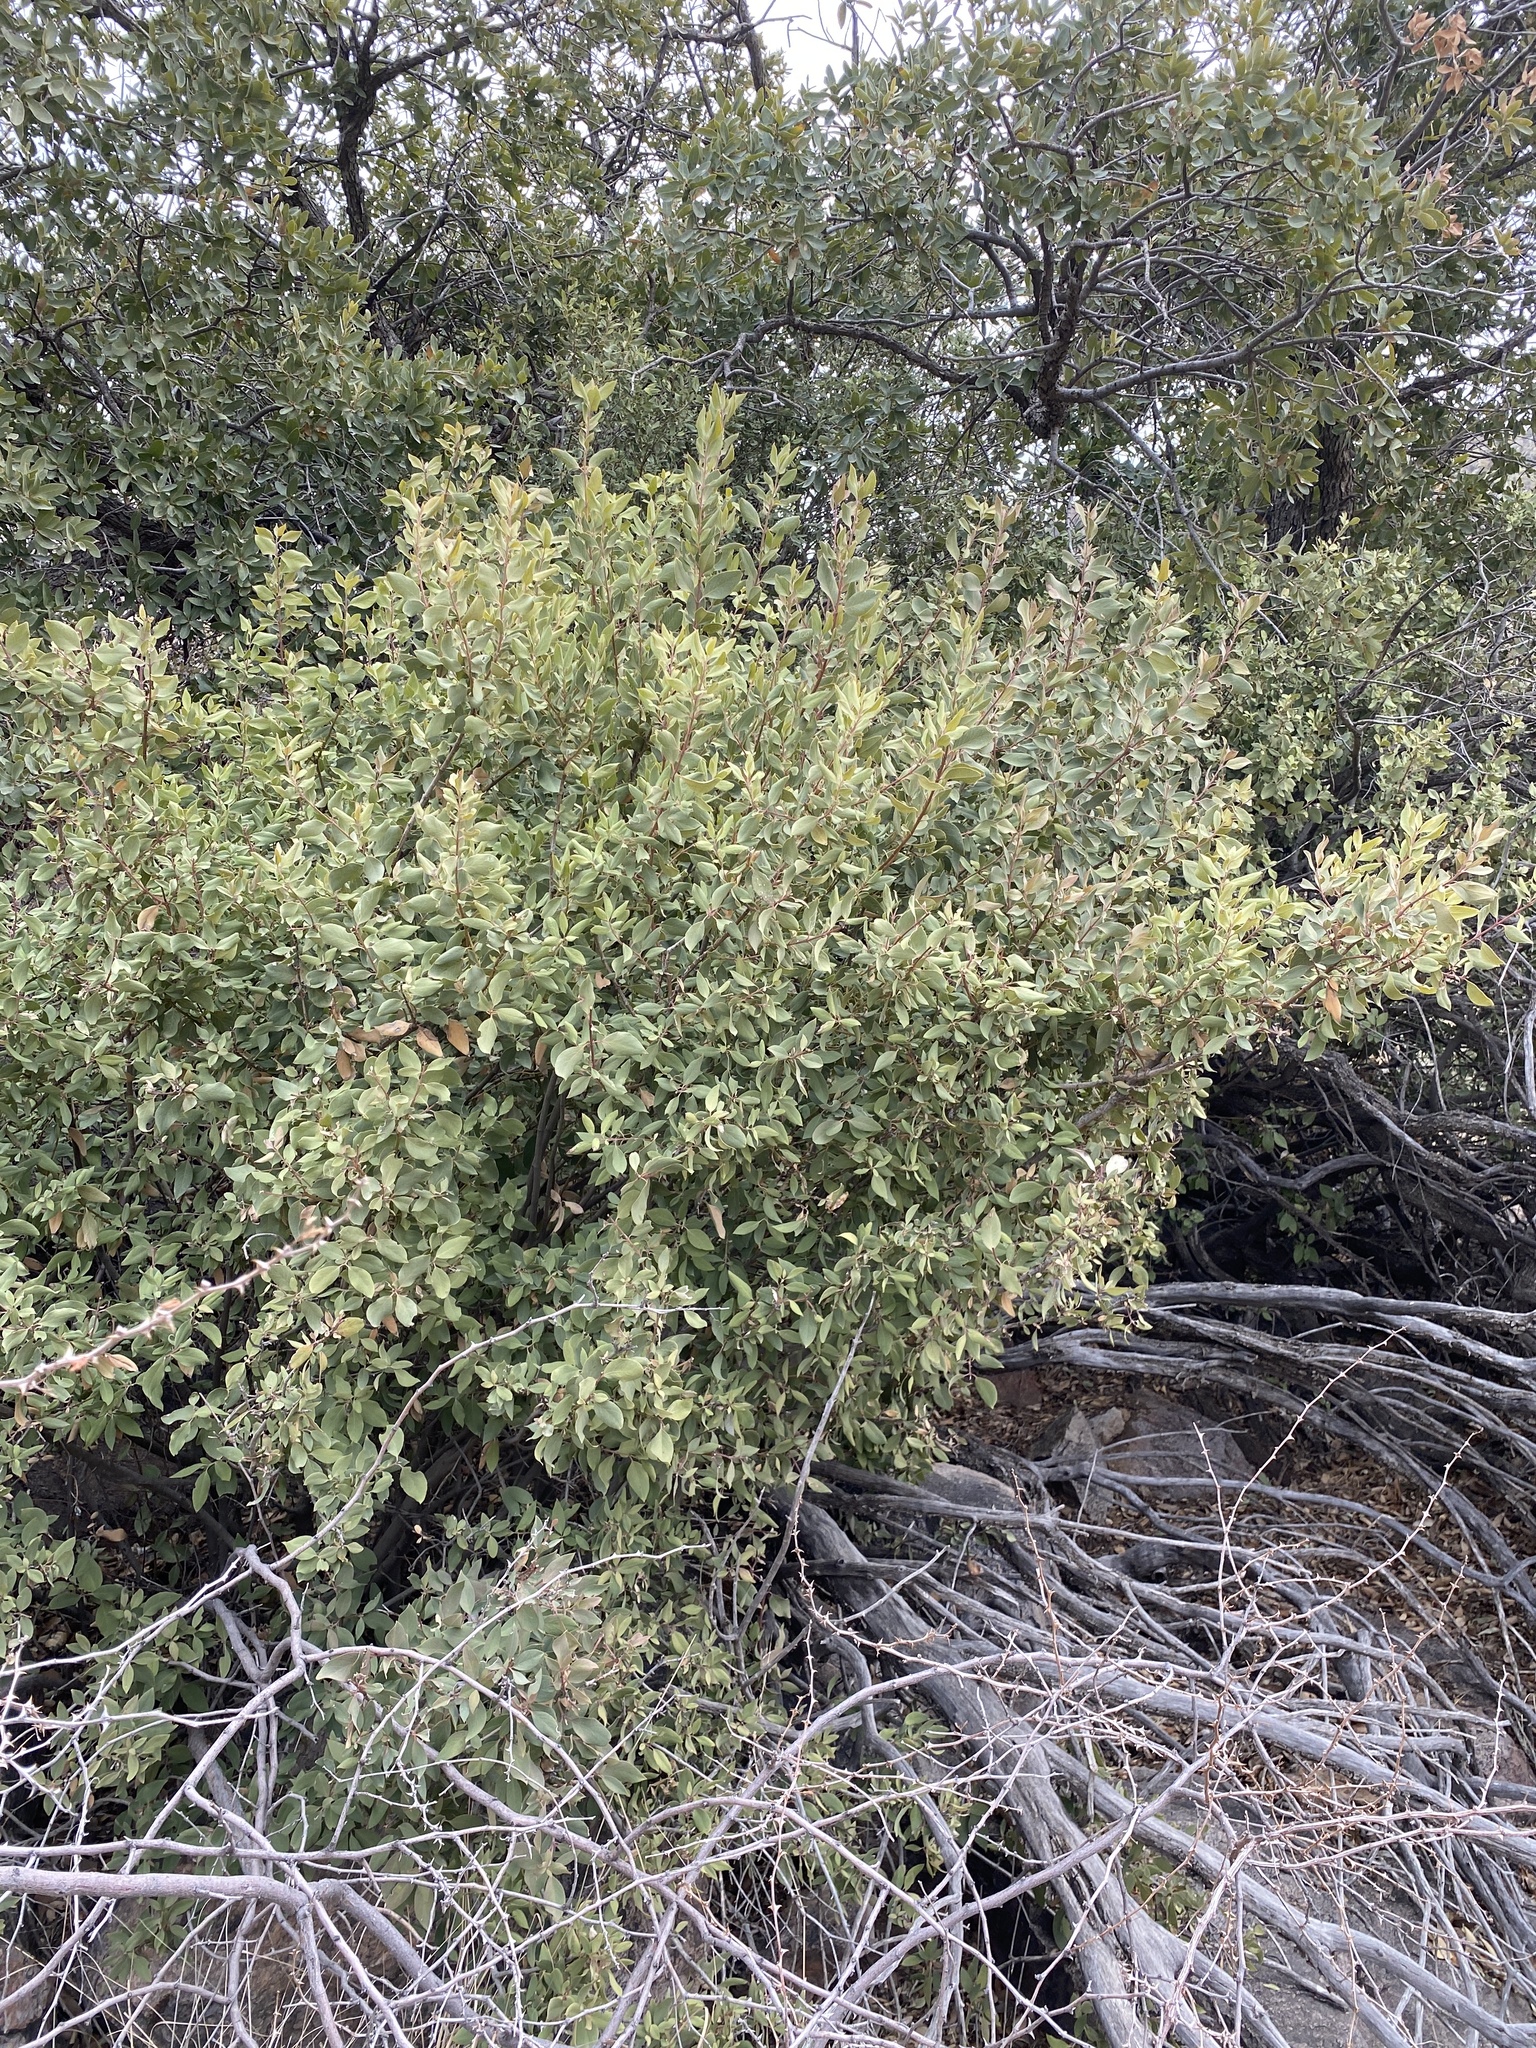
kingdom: Plantae
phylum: Tracheophyta
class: Magnoliopsida
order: Garryales
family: Garryaceae
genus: Garrya
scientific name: Garrya wrightii
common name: Wright's silktassel
